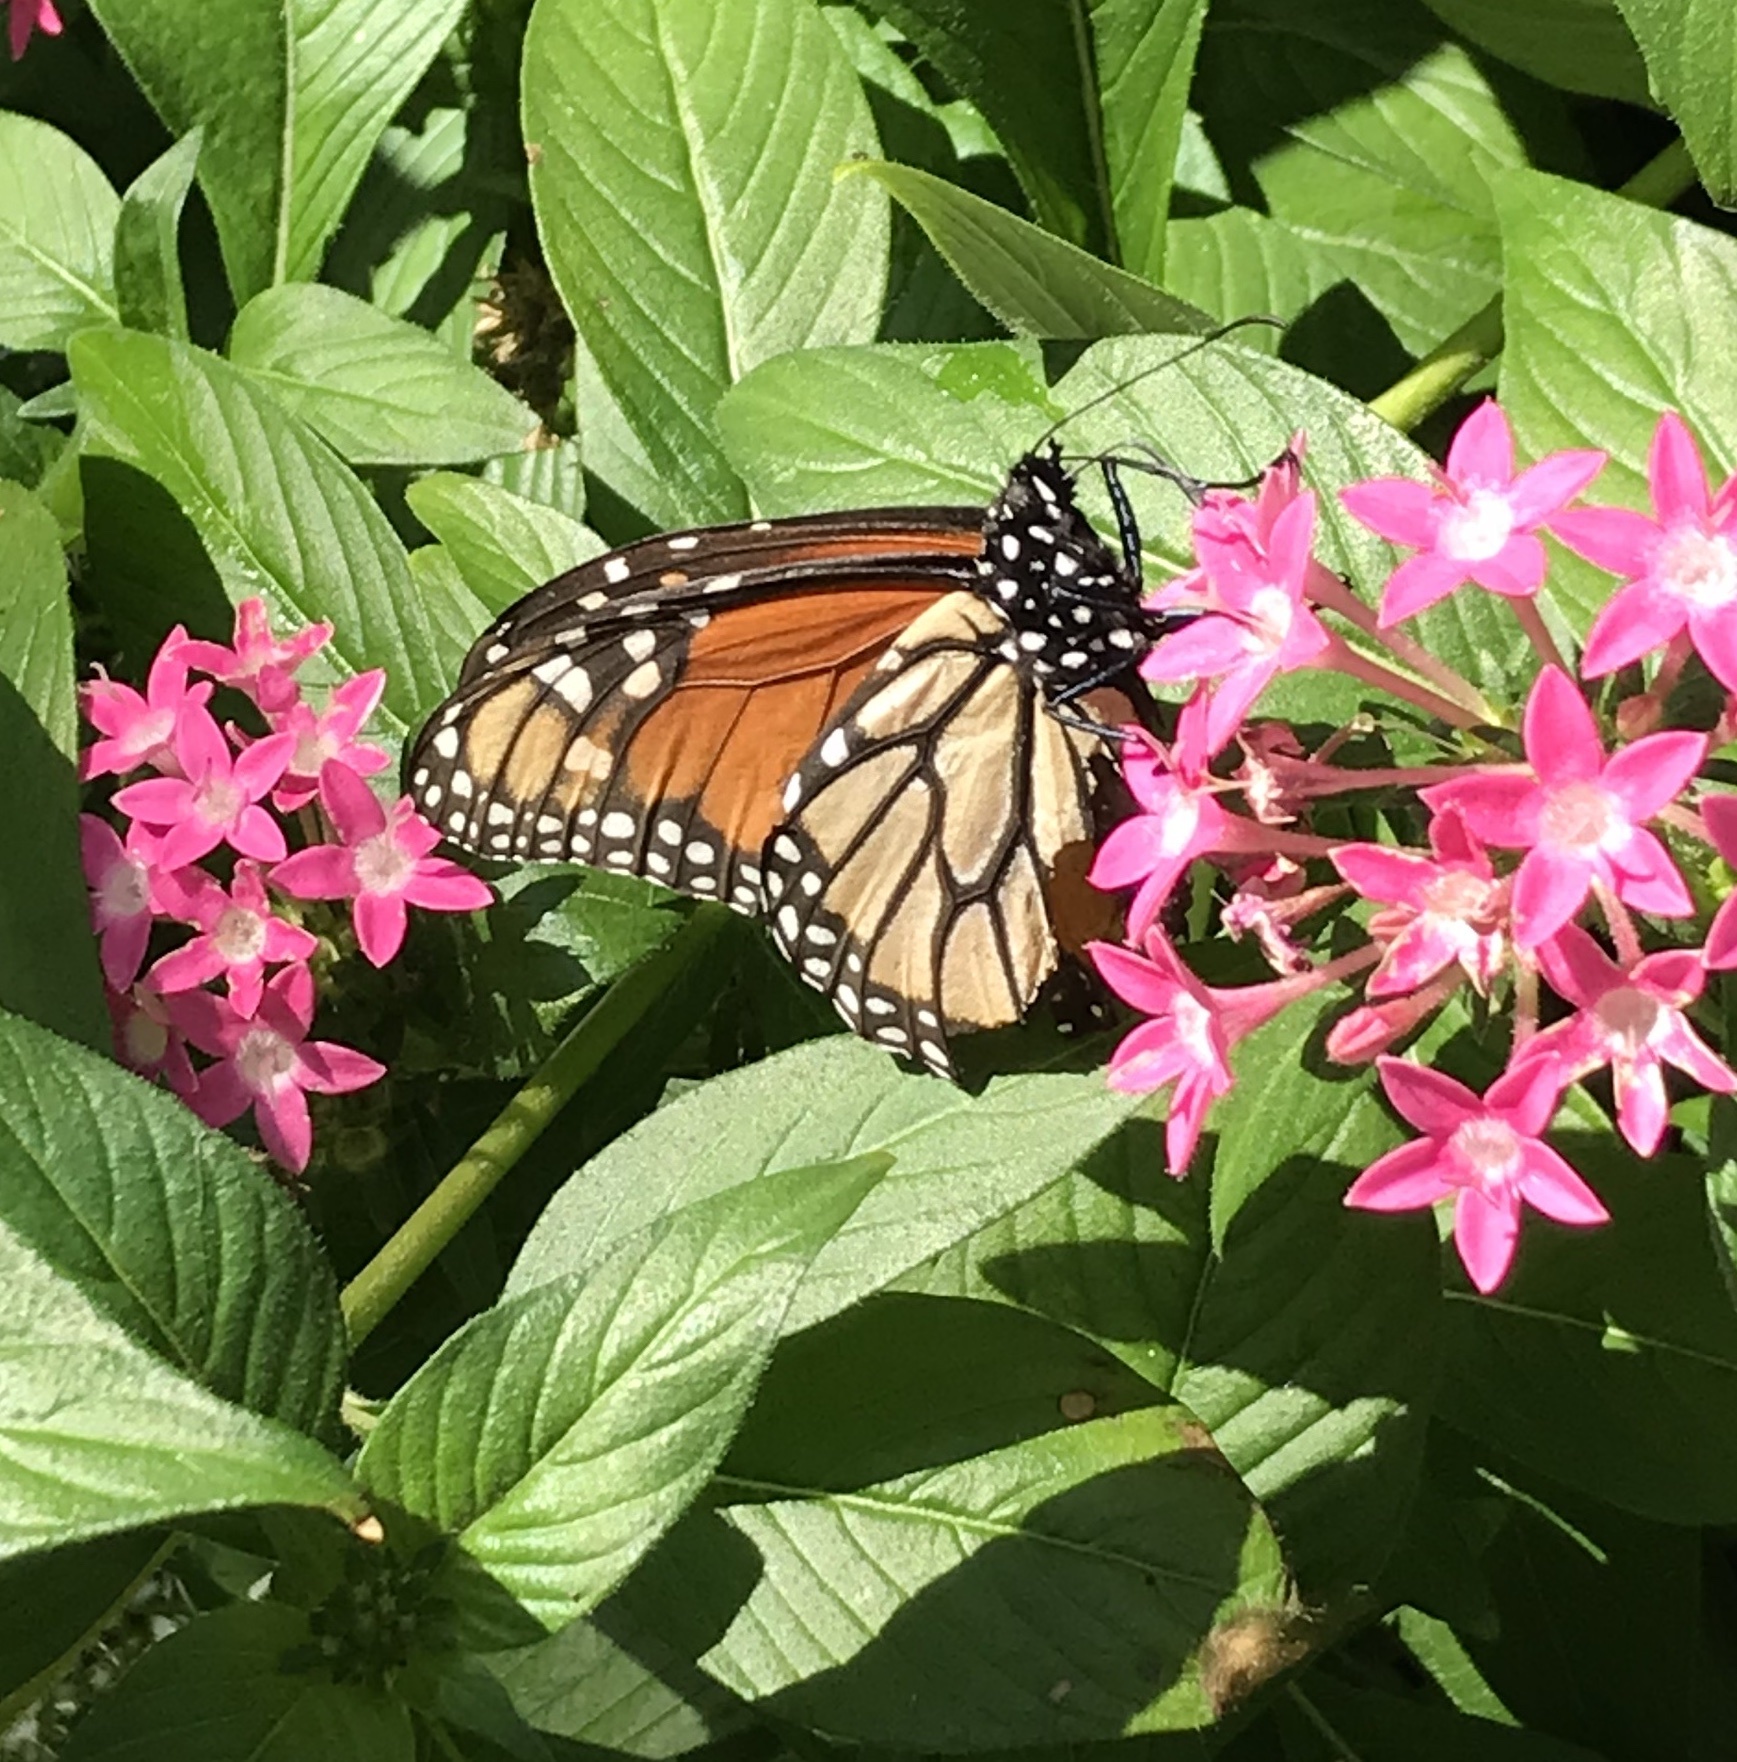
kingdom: Animalia
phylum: Arthropoda
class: Insecta
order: Lepidoptera
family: Nymphalidae
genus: Danaus
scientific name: Danaus plexippus
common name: Monarch
